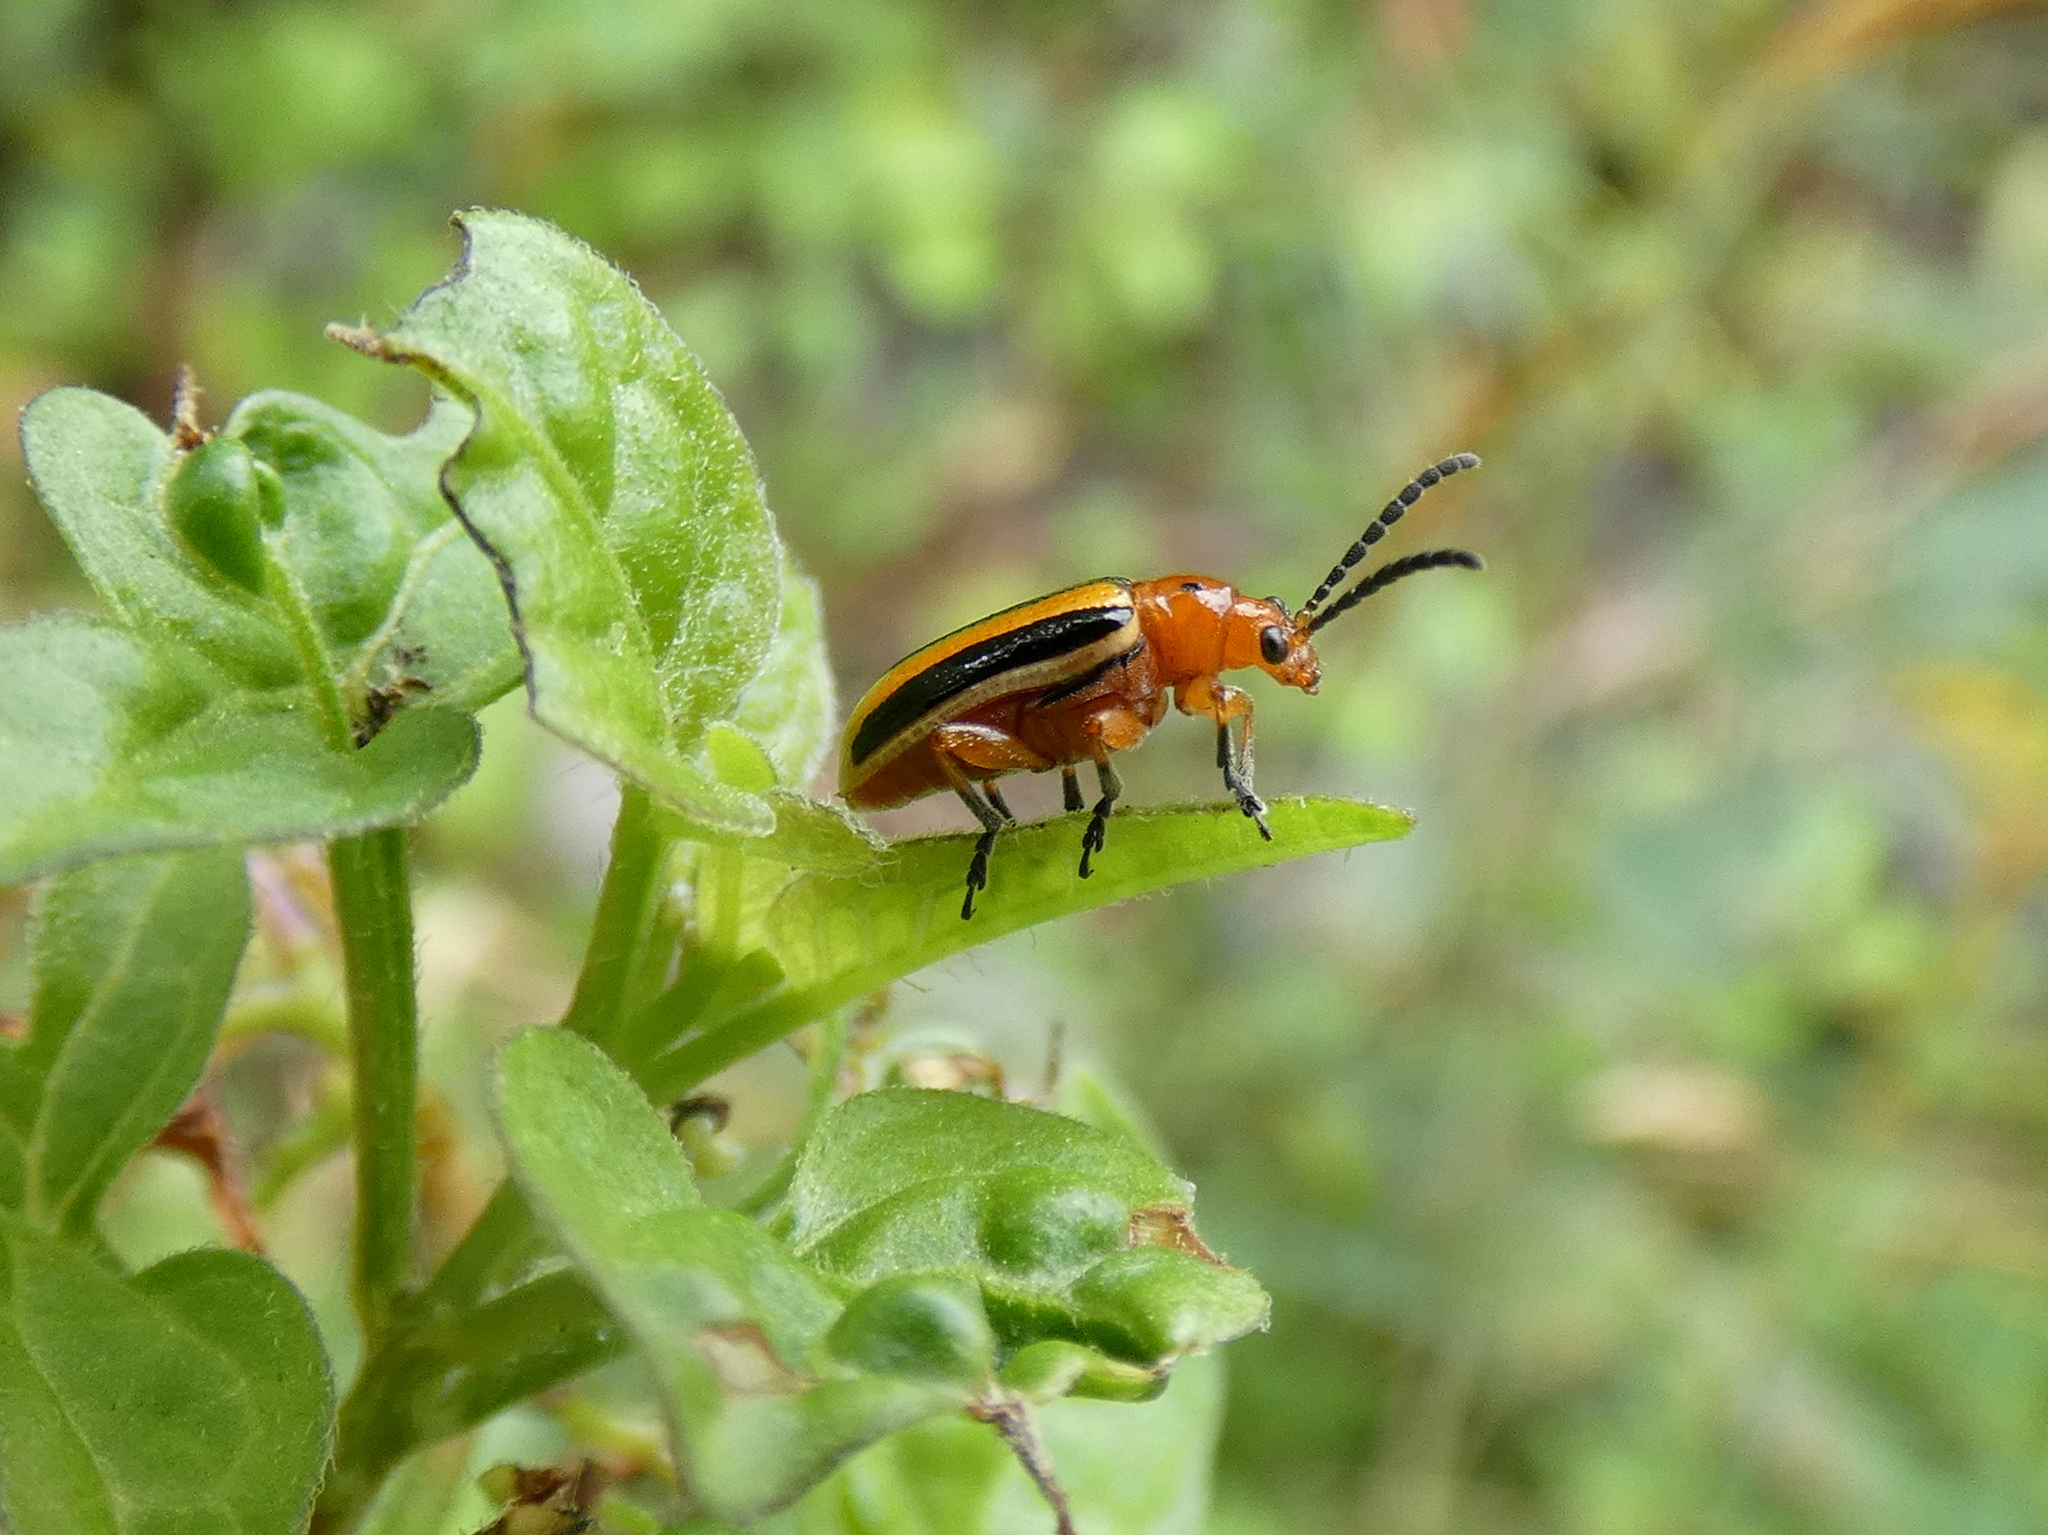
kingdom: Animalia
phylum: Arthropoda
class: Insecta
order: Coleoptera
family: Chrysomelidae
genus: Lema
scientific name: Lema daturaphila
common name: Leaf beetle
